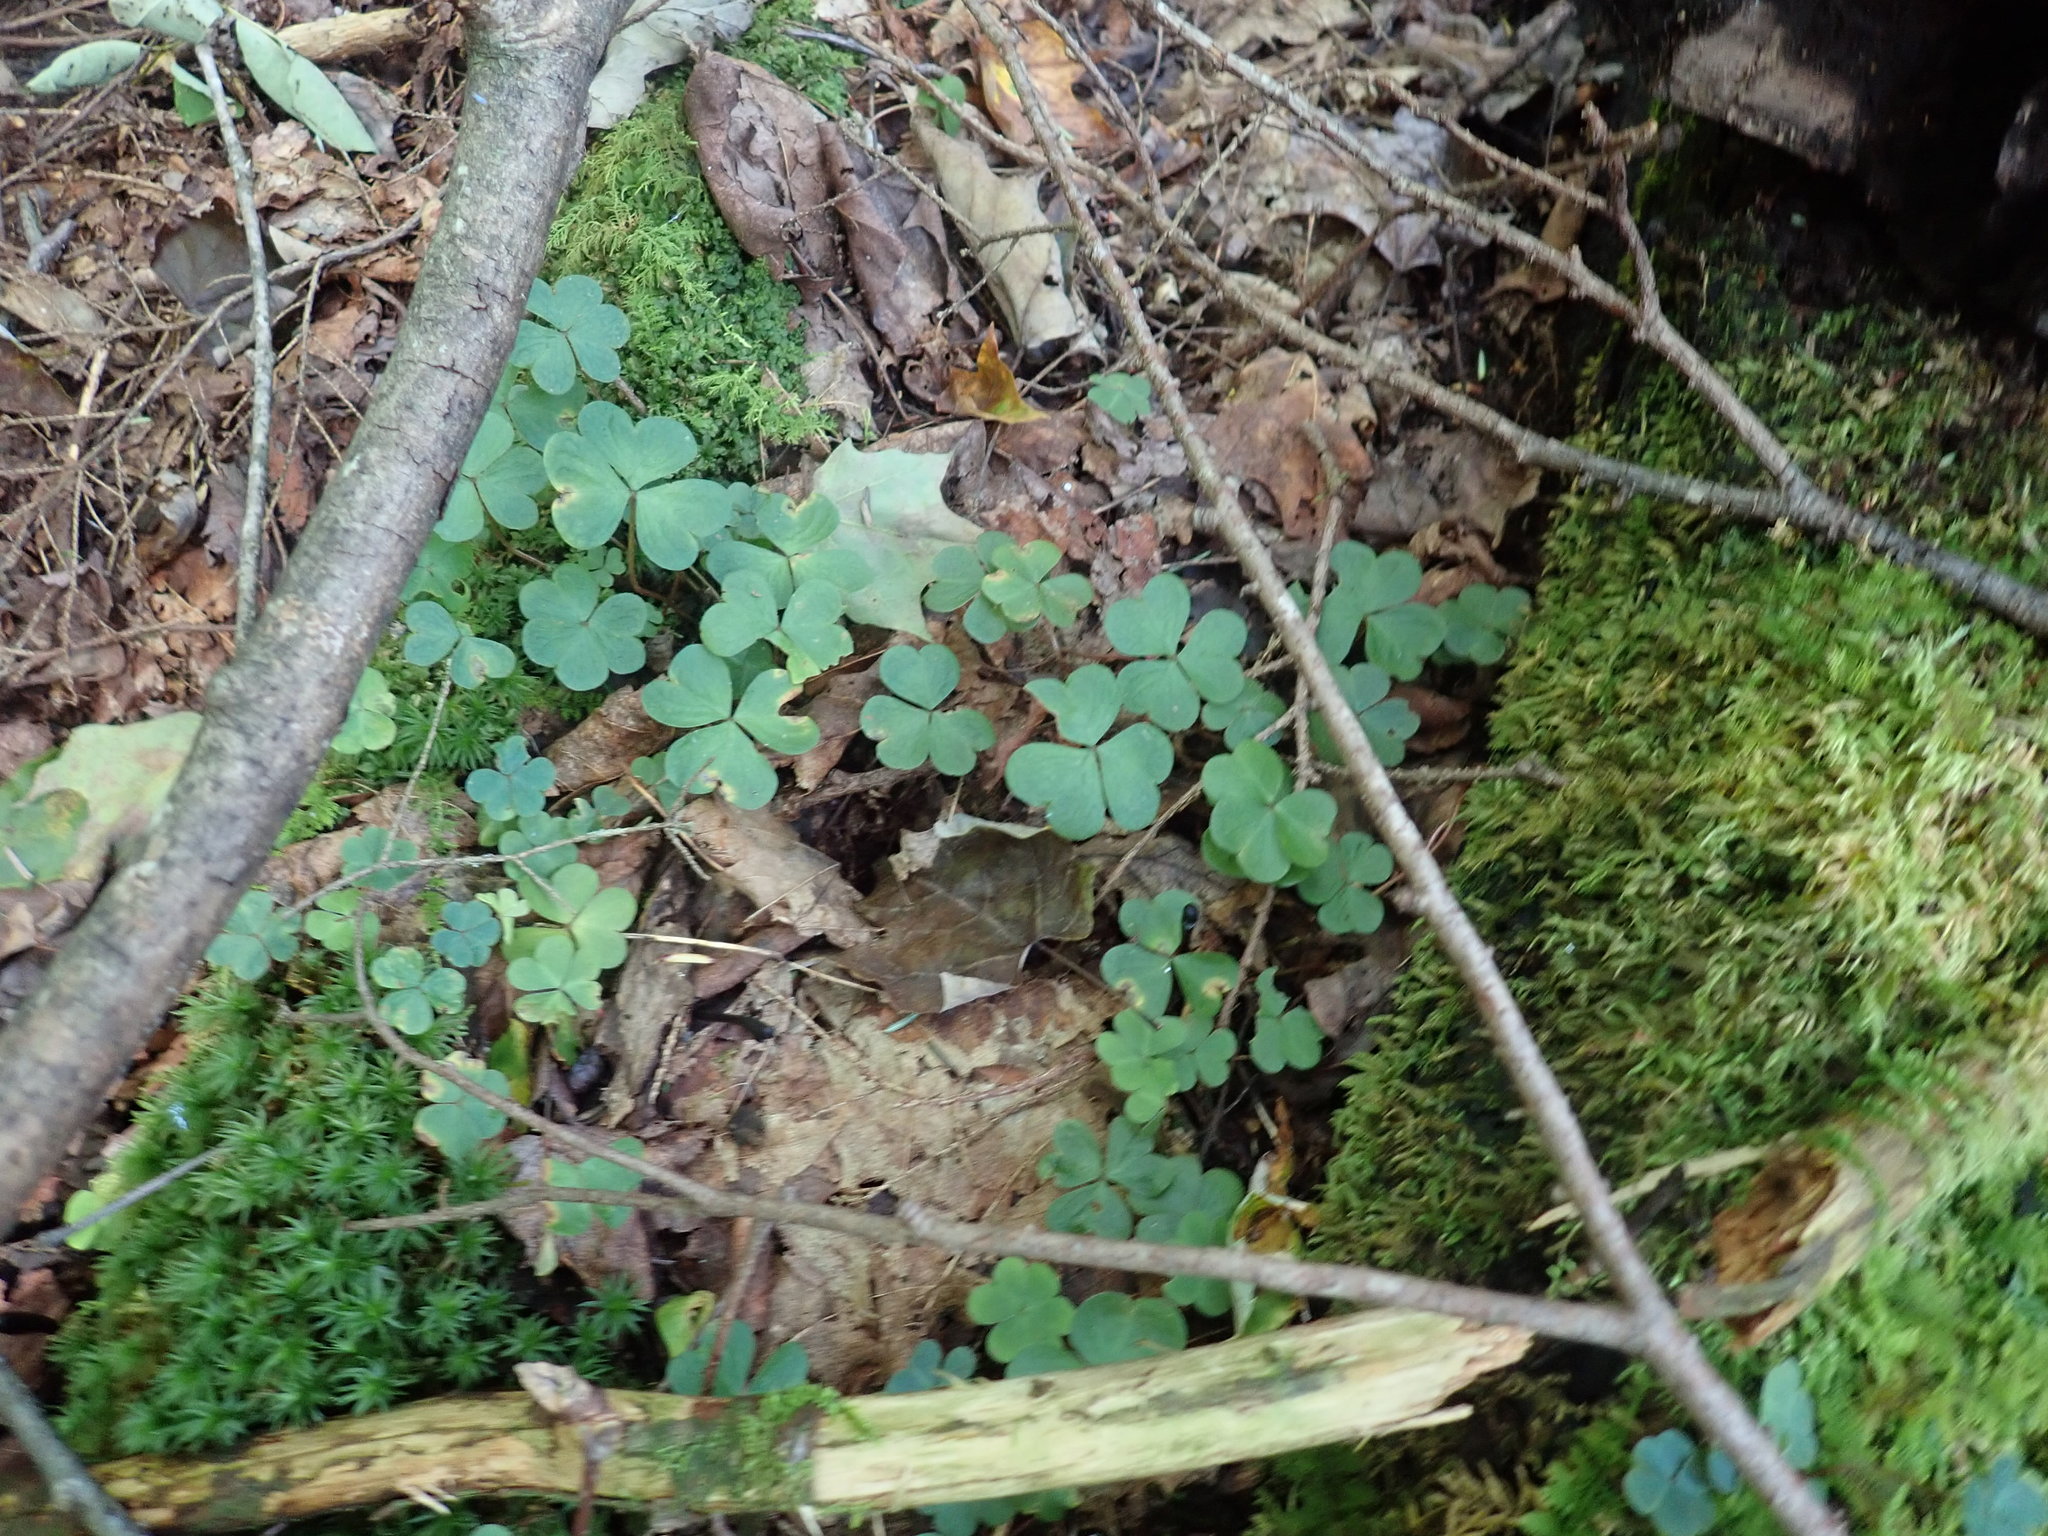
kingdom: Plantae
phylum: Tracheophyta
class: Magnoliopsida
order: Oxalidales
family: Oxalidaceae
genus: Oxalis
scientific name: Oxalis montana
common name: American wood-sorrel
